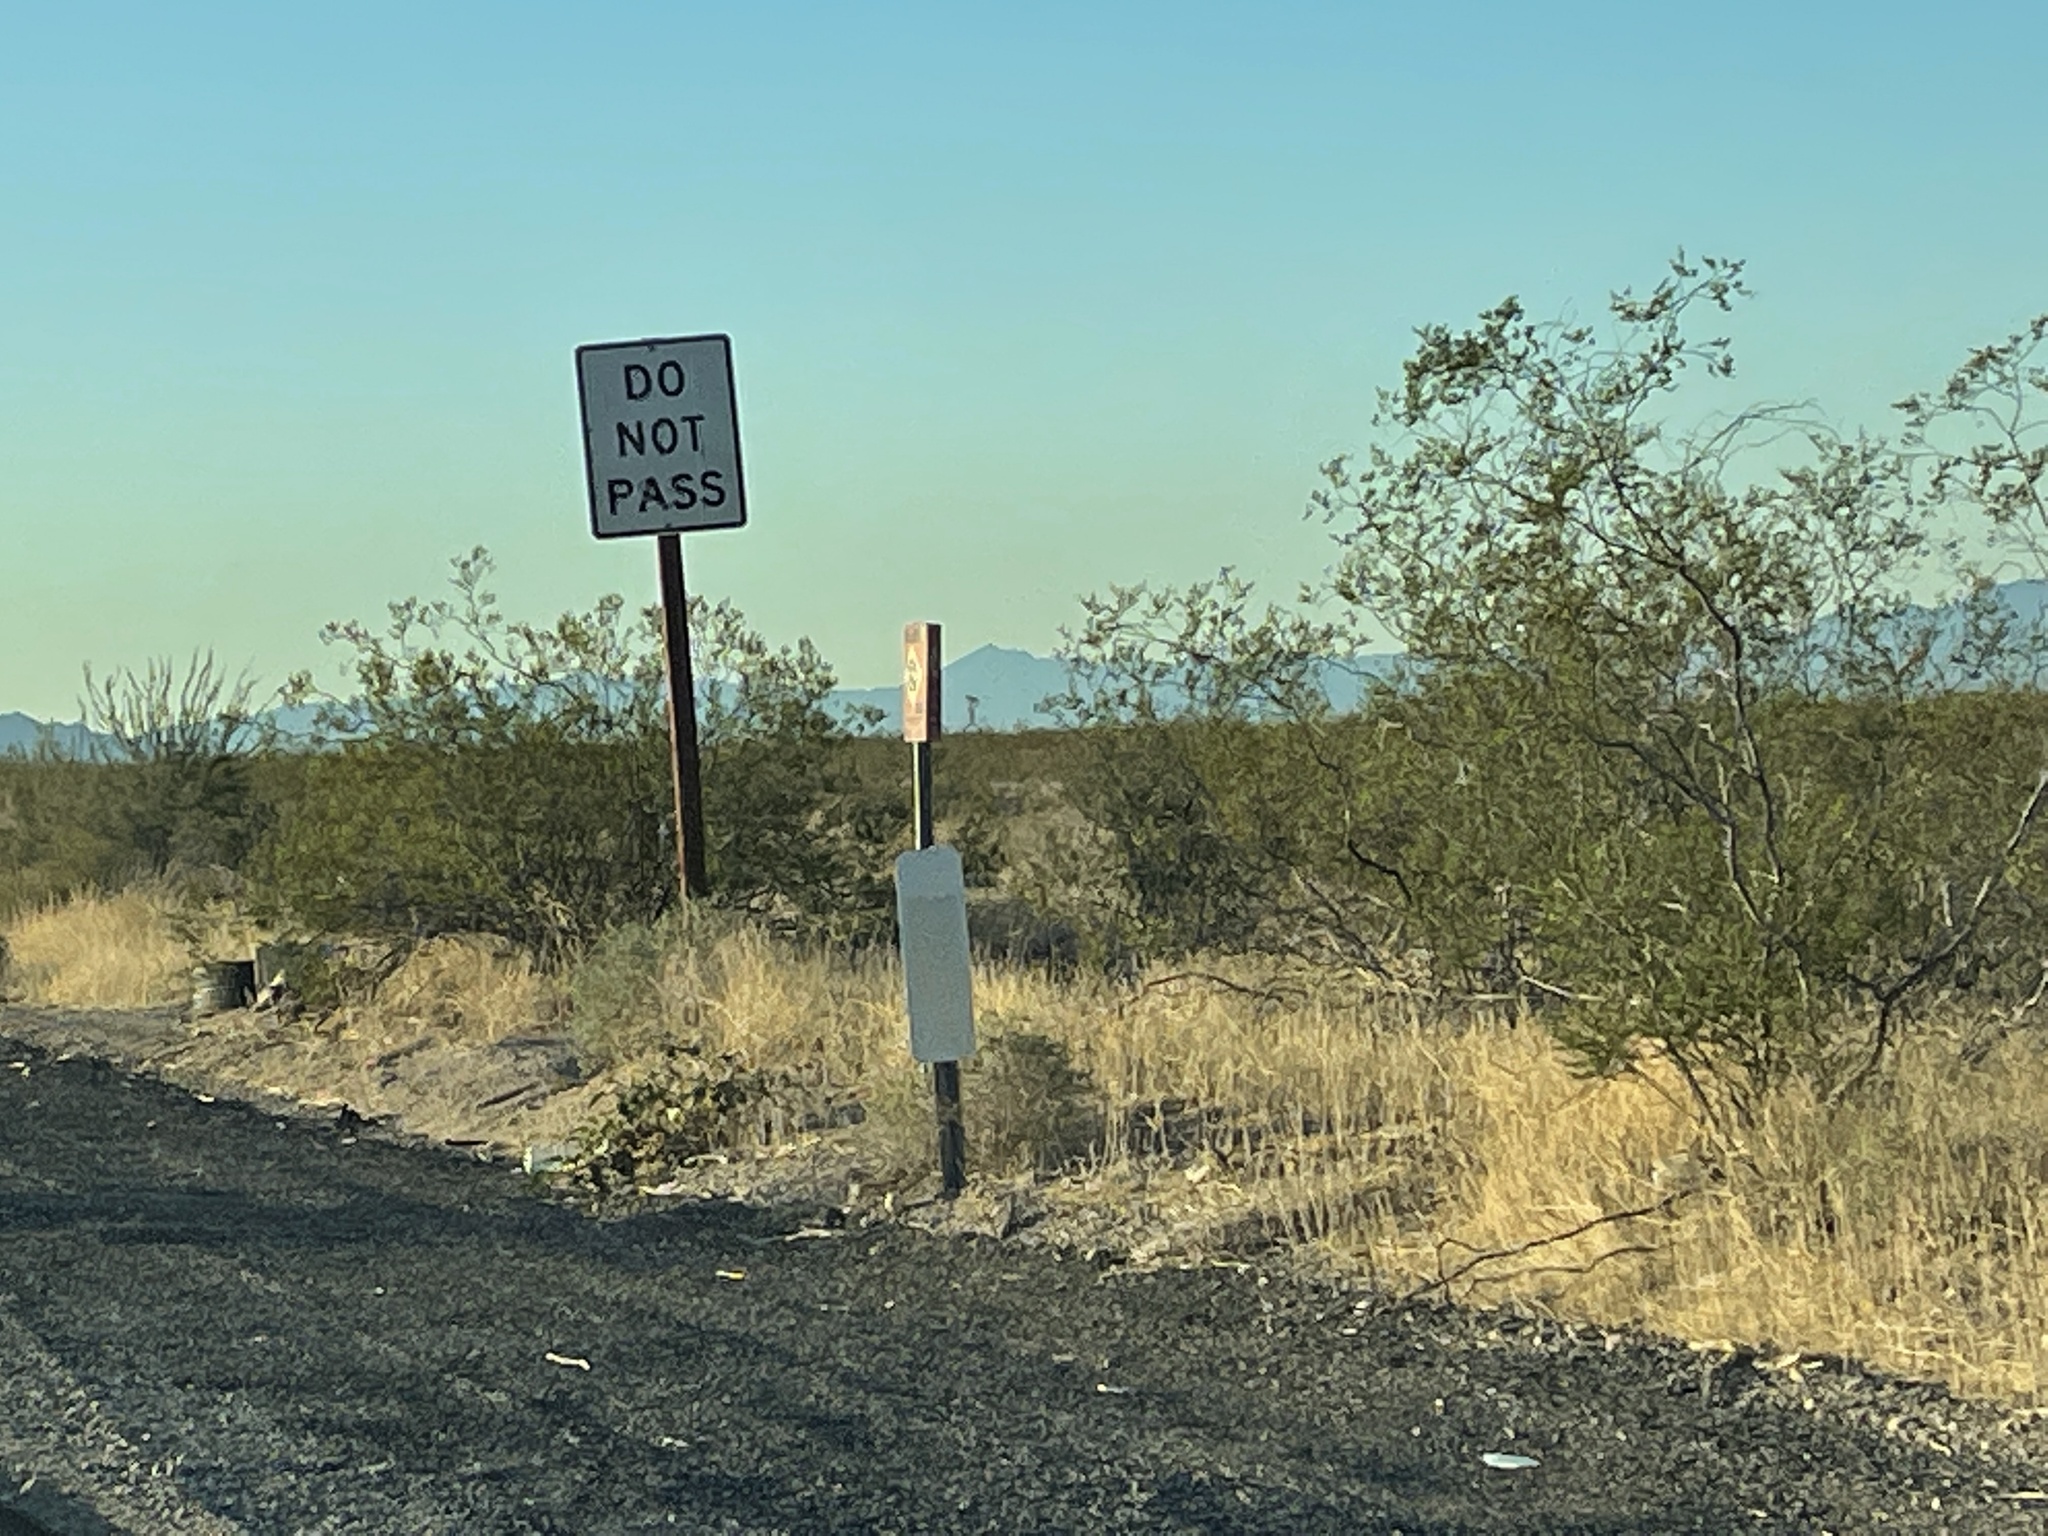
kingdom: Plantae
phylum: Tracheophyta
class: Magnoliopsida
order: Zygophyllales
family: Zygophyllaceae
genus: Larrea
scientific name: Larrea tridentata
